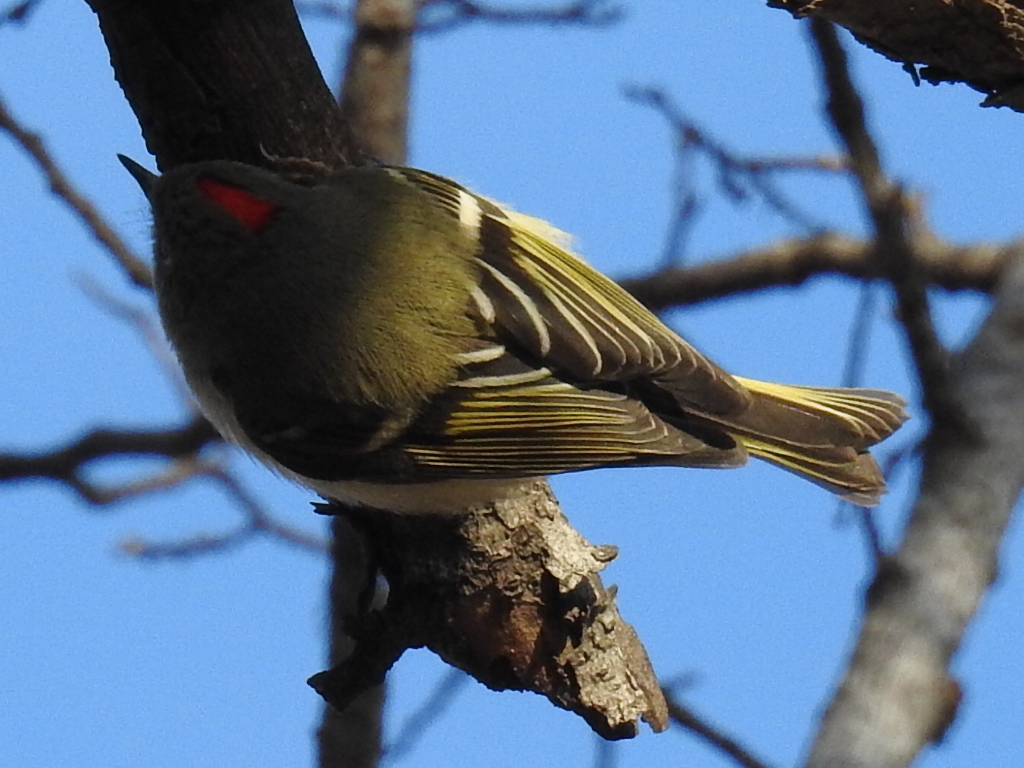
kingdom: Animalia
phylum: Chordata
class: Aves
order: Passeriformes
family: Regulidae
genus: Regulus
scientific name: Regulus calendula
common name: Ruby-crowned kinglet
